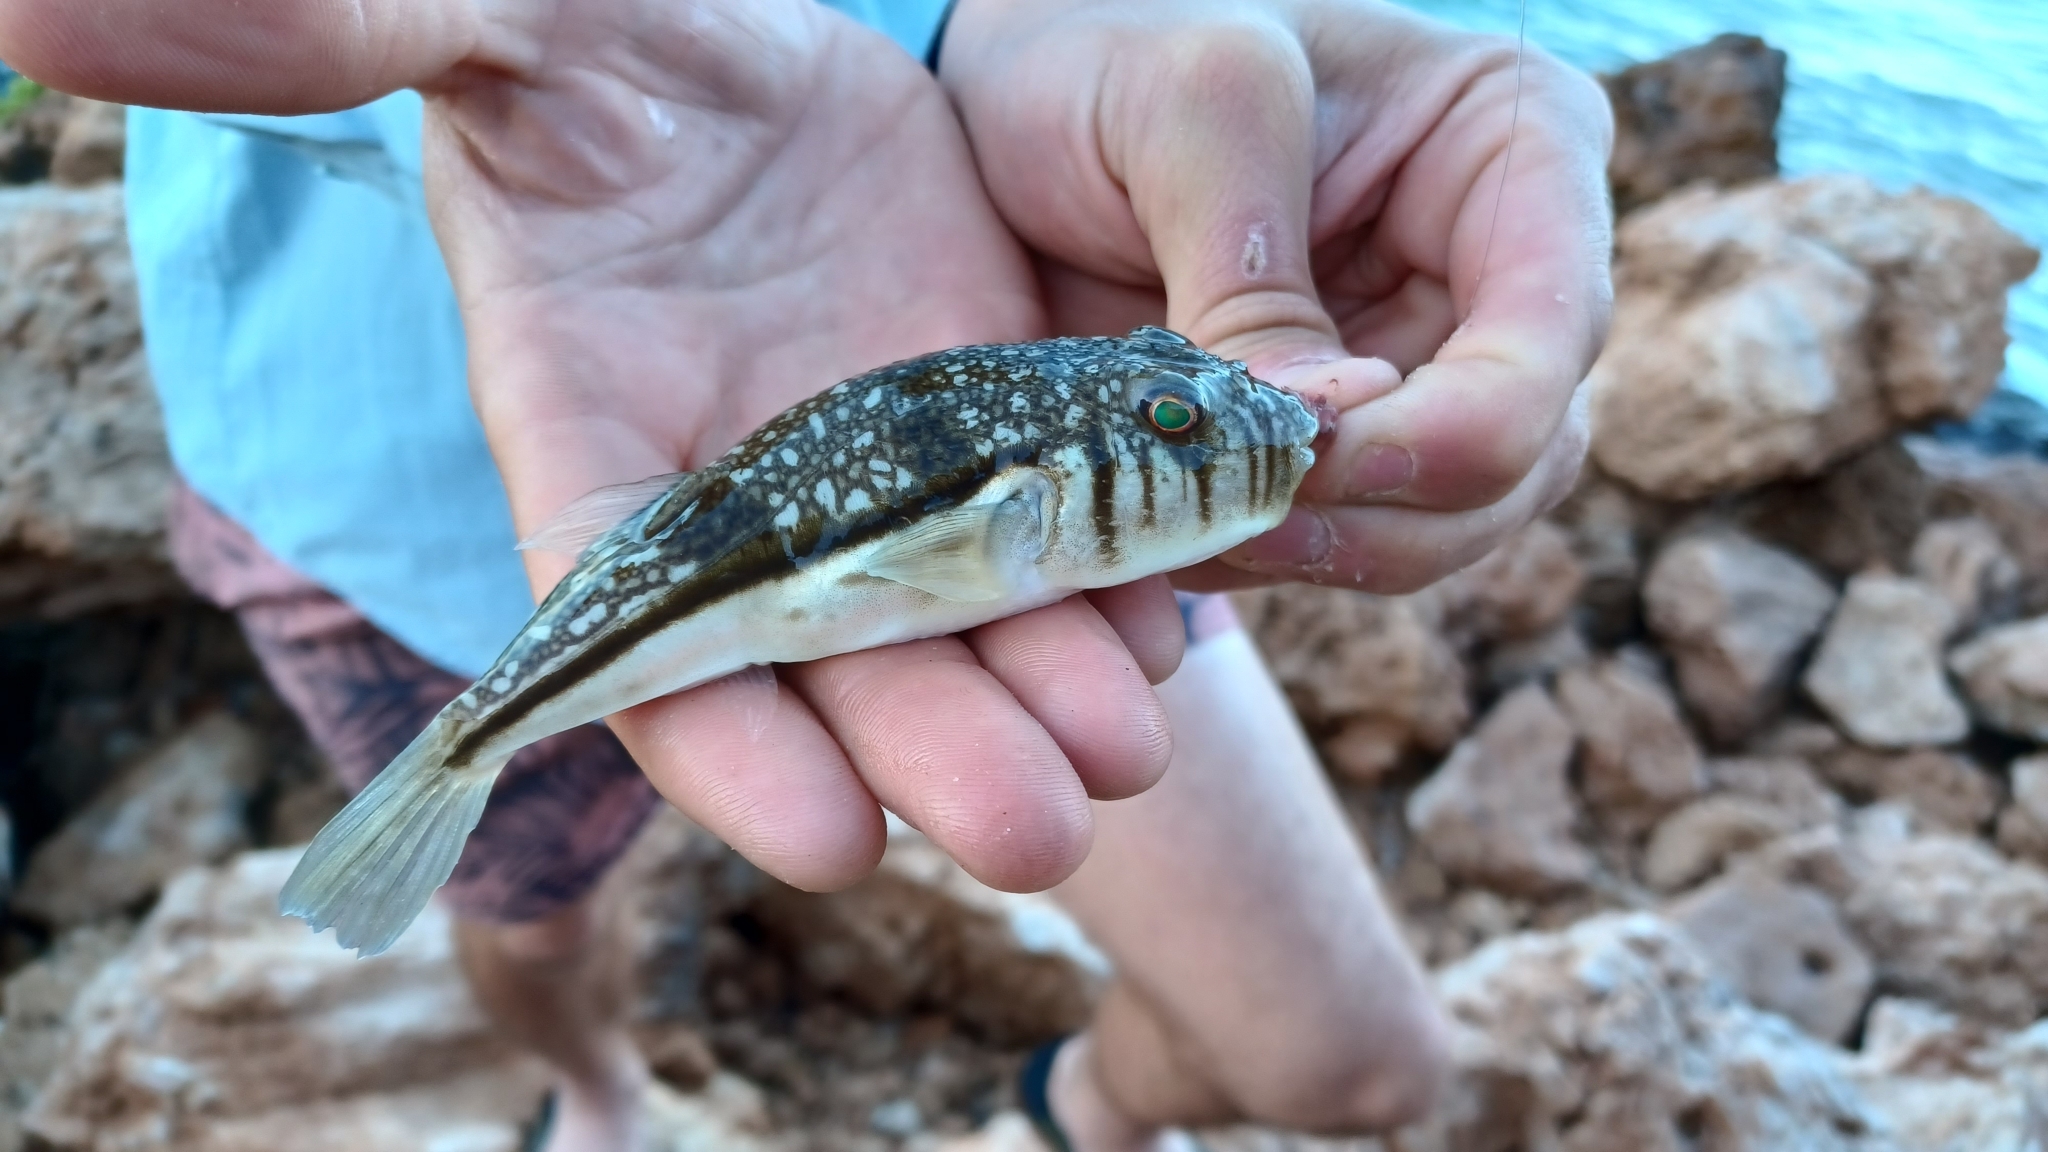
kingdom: Animalia
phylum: Chordata
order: Tetraodontiformes
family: Tetraodontidae
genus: Torquigener
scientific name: Torquigener pleurogramma
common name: Banded toadfish
